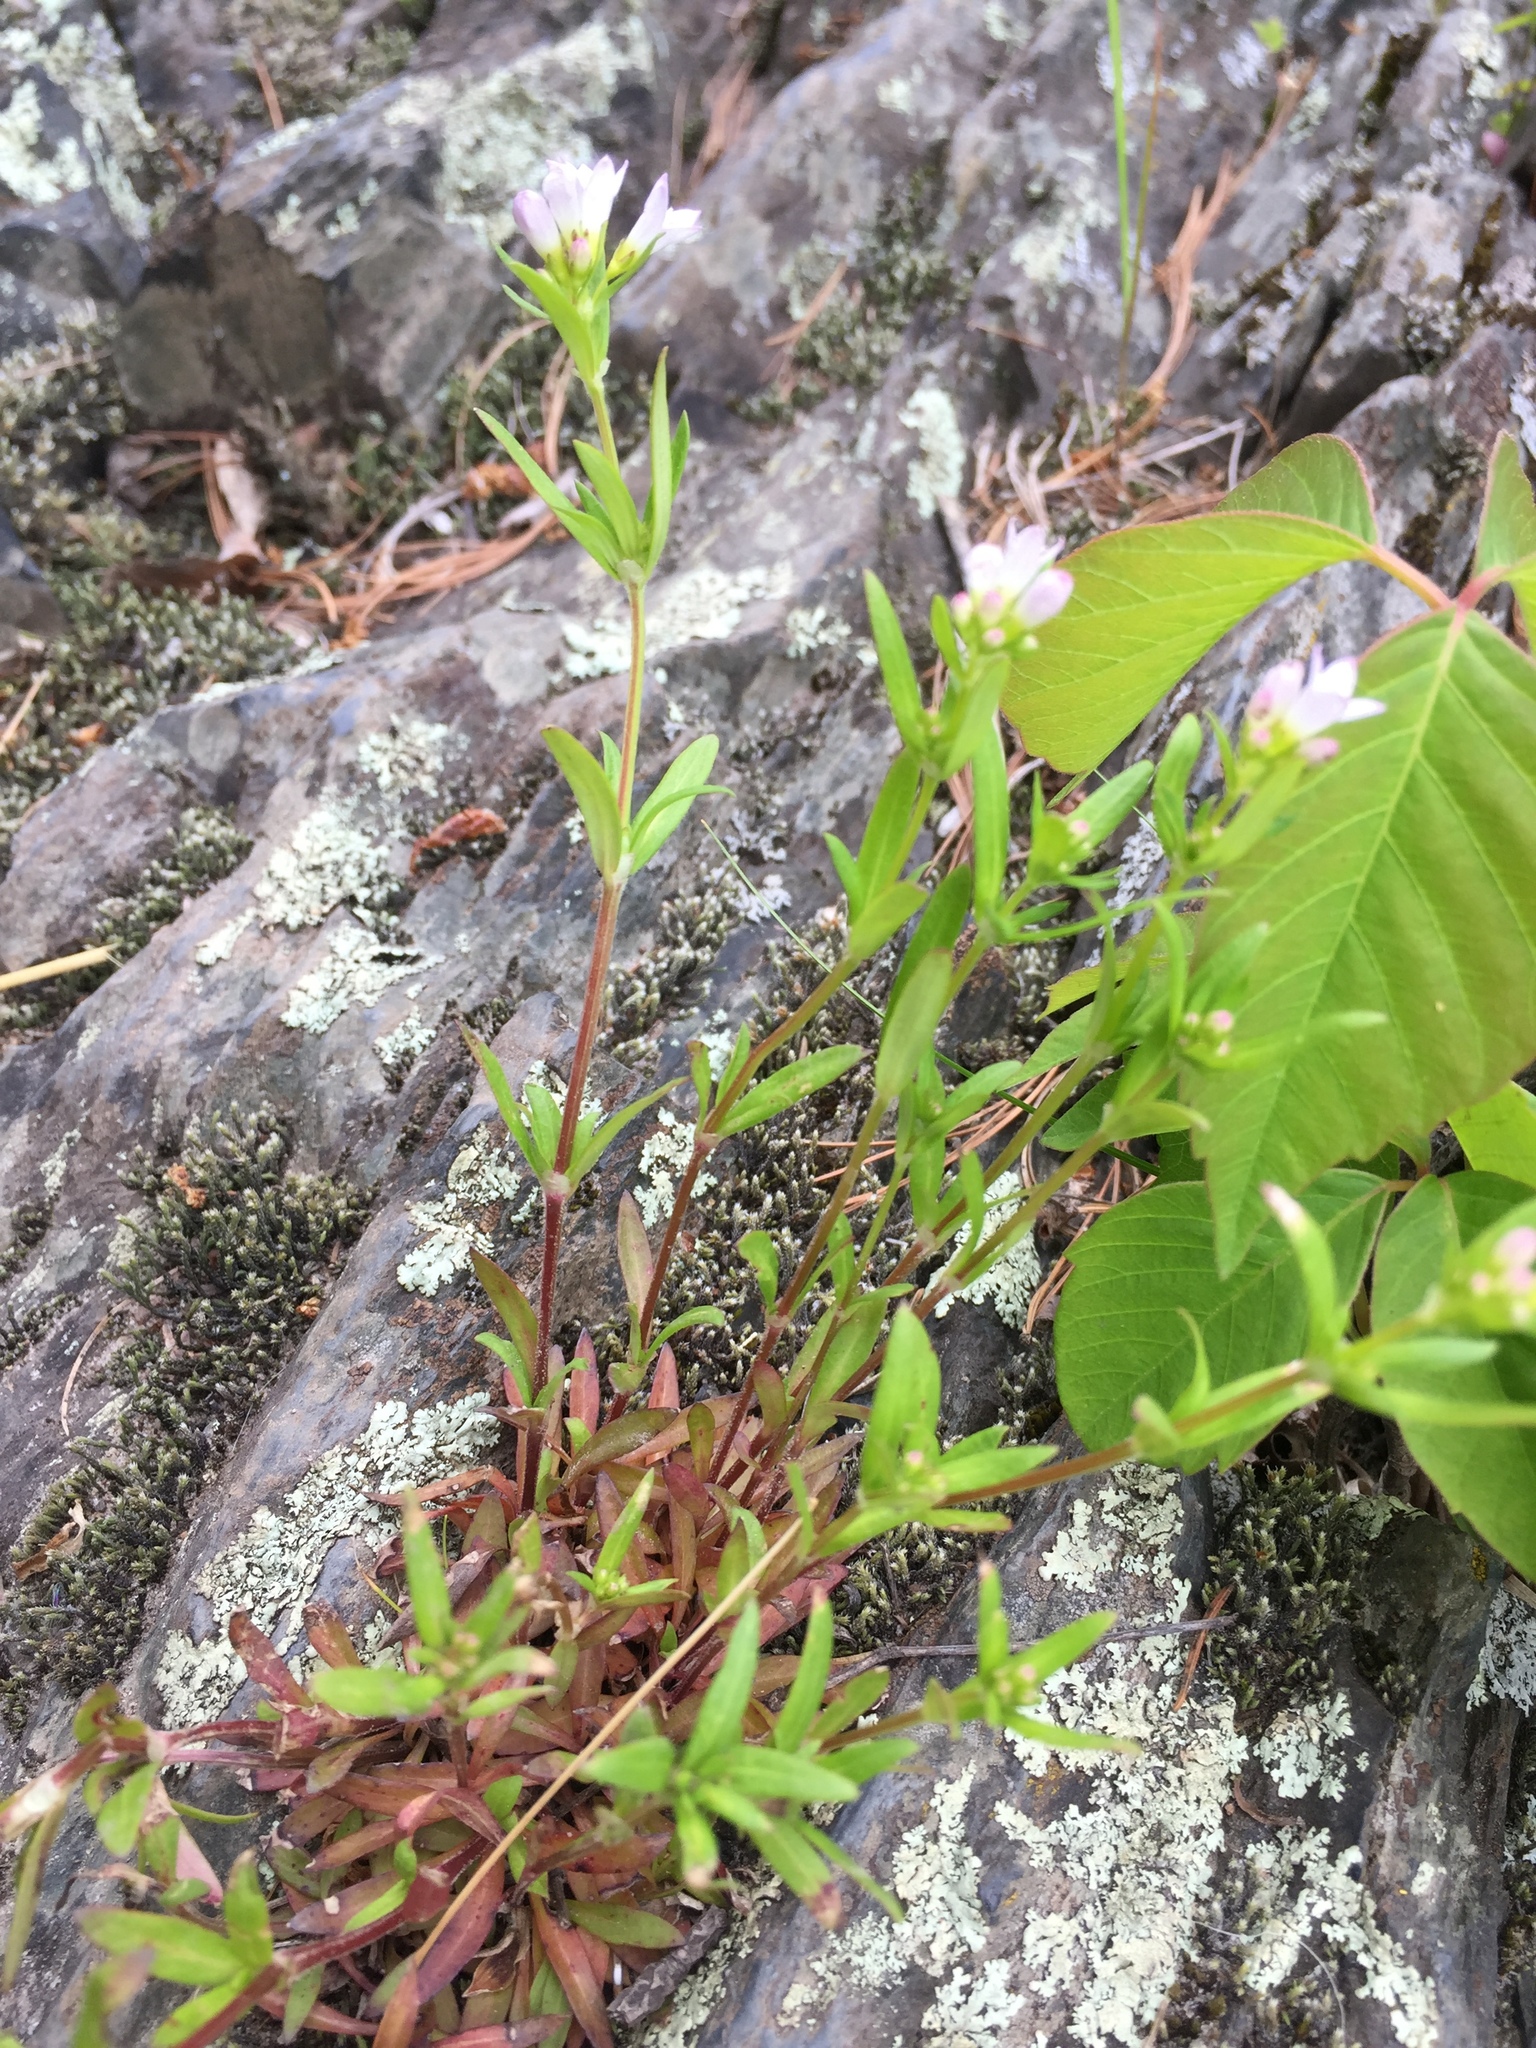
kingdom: Plantae
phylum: Tracheophyta
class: Magnoliopsida
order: Gentianales
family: Rubiaceae
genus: Houstonia
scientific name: Houstonia longifolia
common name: Long-leaved bluets
